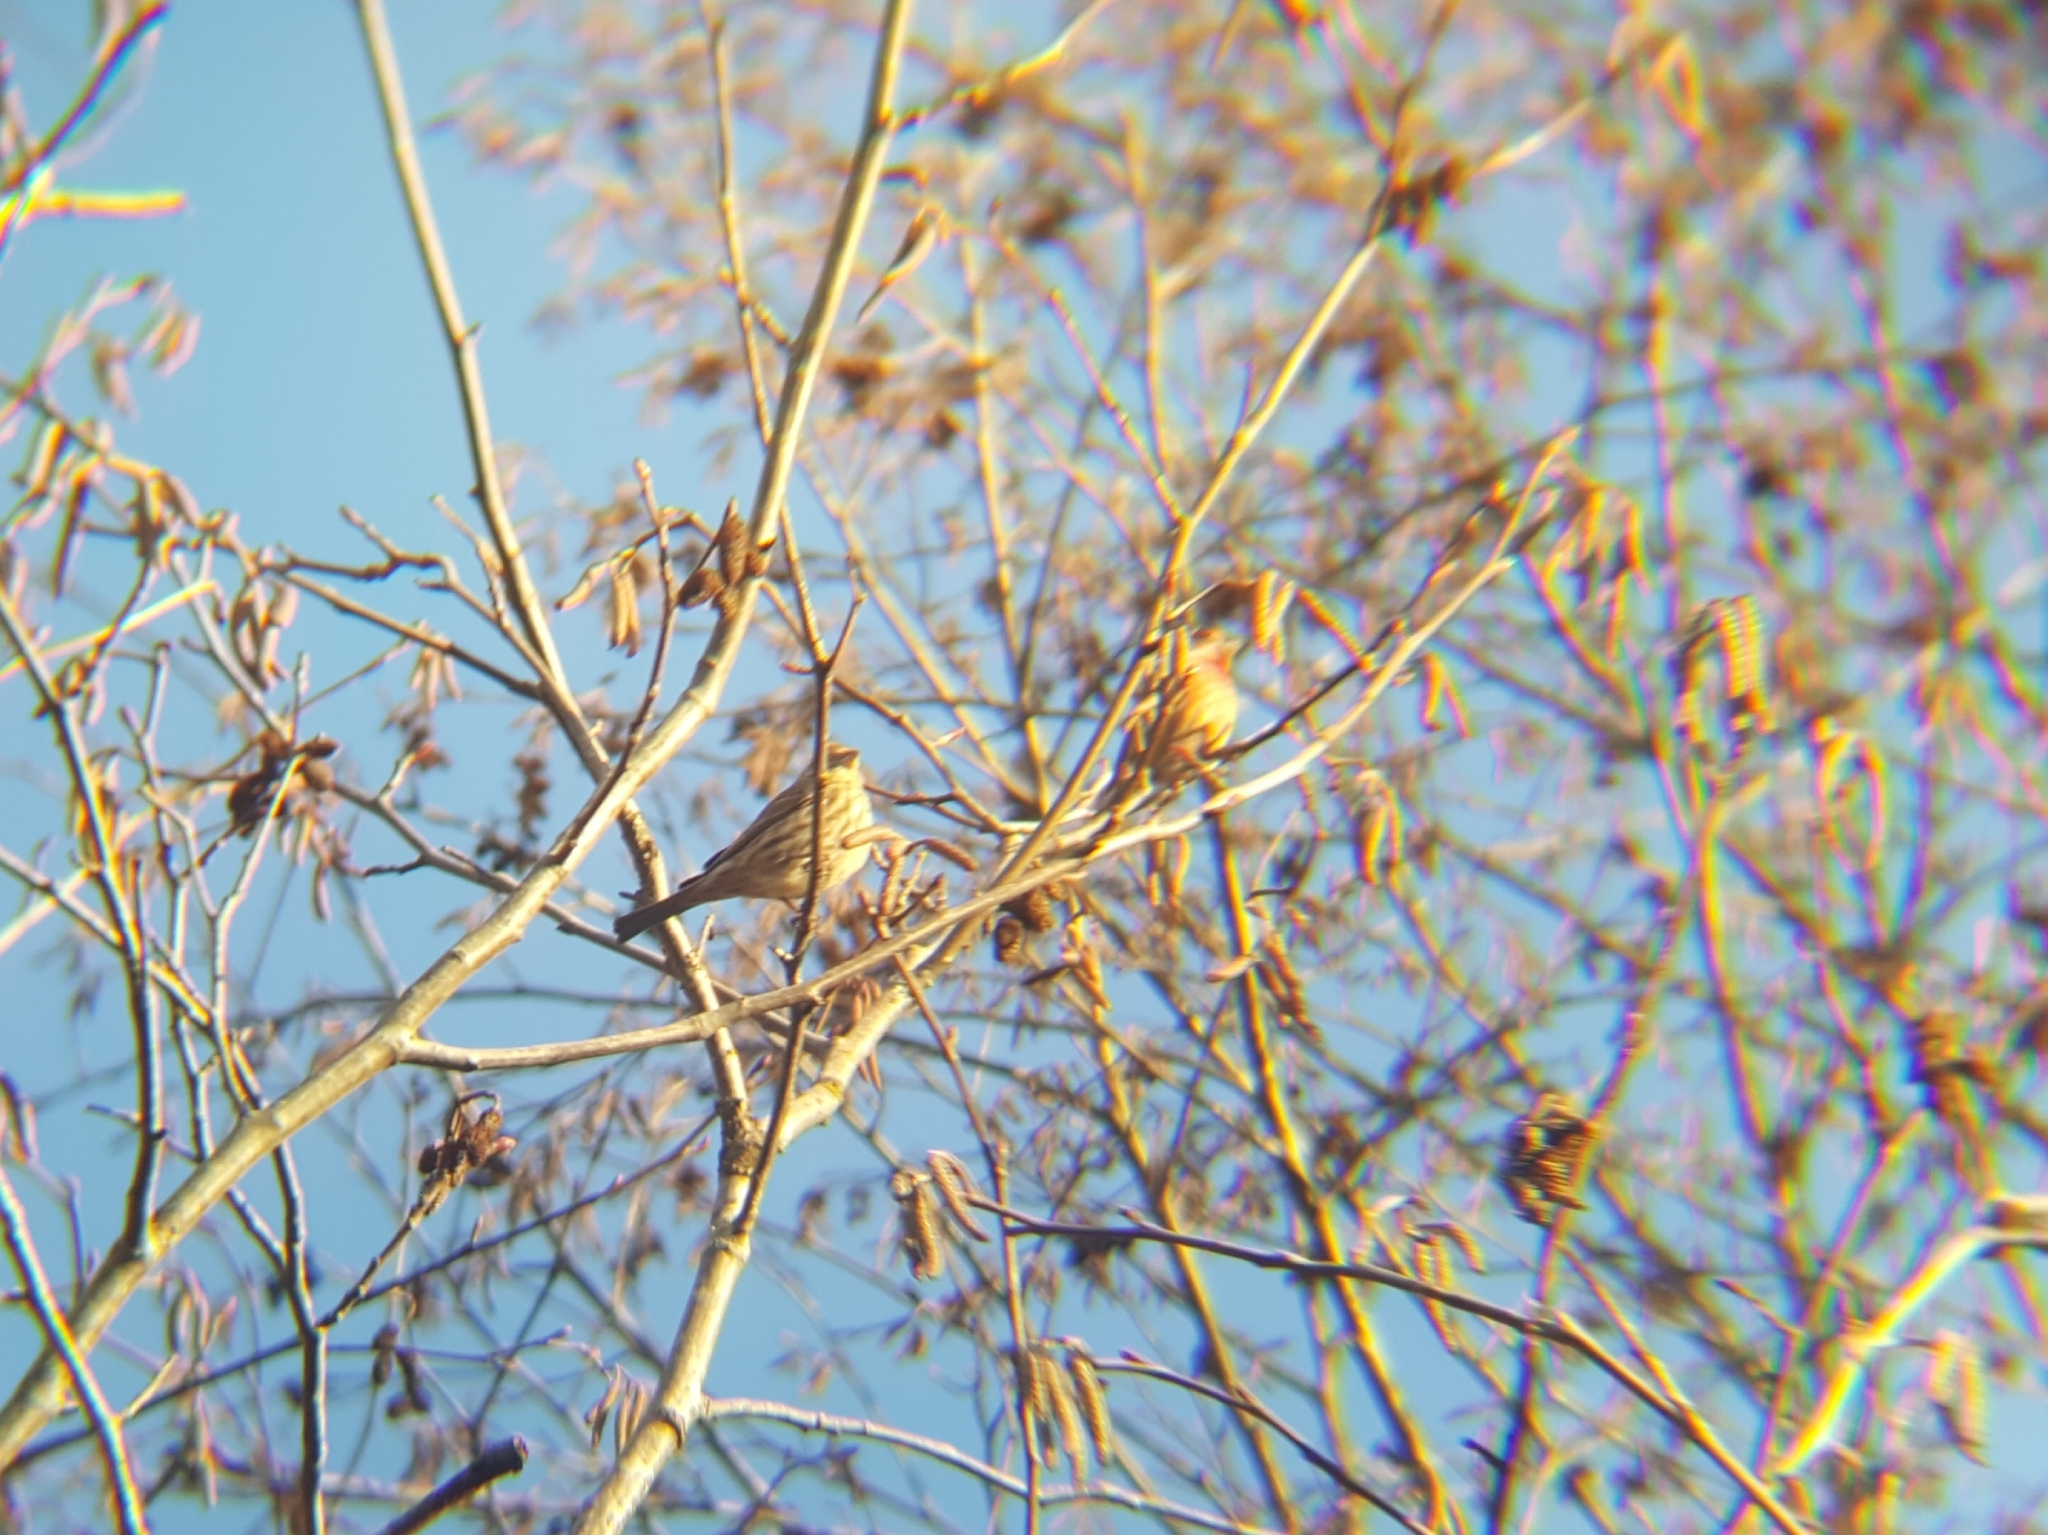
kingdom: Animalia
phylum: Chordata
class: Aves
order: Passeriformes
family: Fringillidae
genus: Haemorhous
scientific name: Haemorhous mexicanus
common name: House finch
